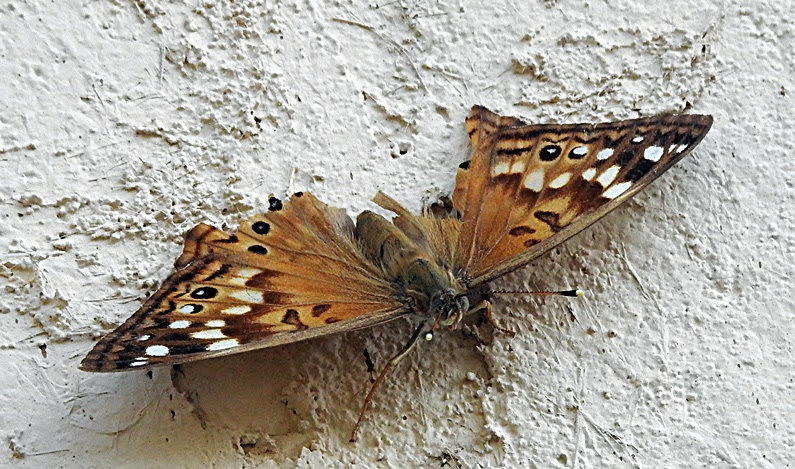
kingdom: Animalia
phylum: Arthropoda
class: Insecta
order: Lepidoptera
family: Nymphalidae
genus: Asterocampa
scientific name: Asterocampa celtis
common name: Hackberry emperor
